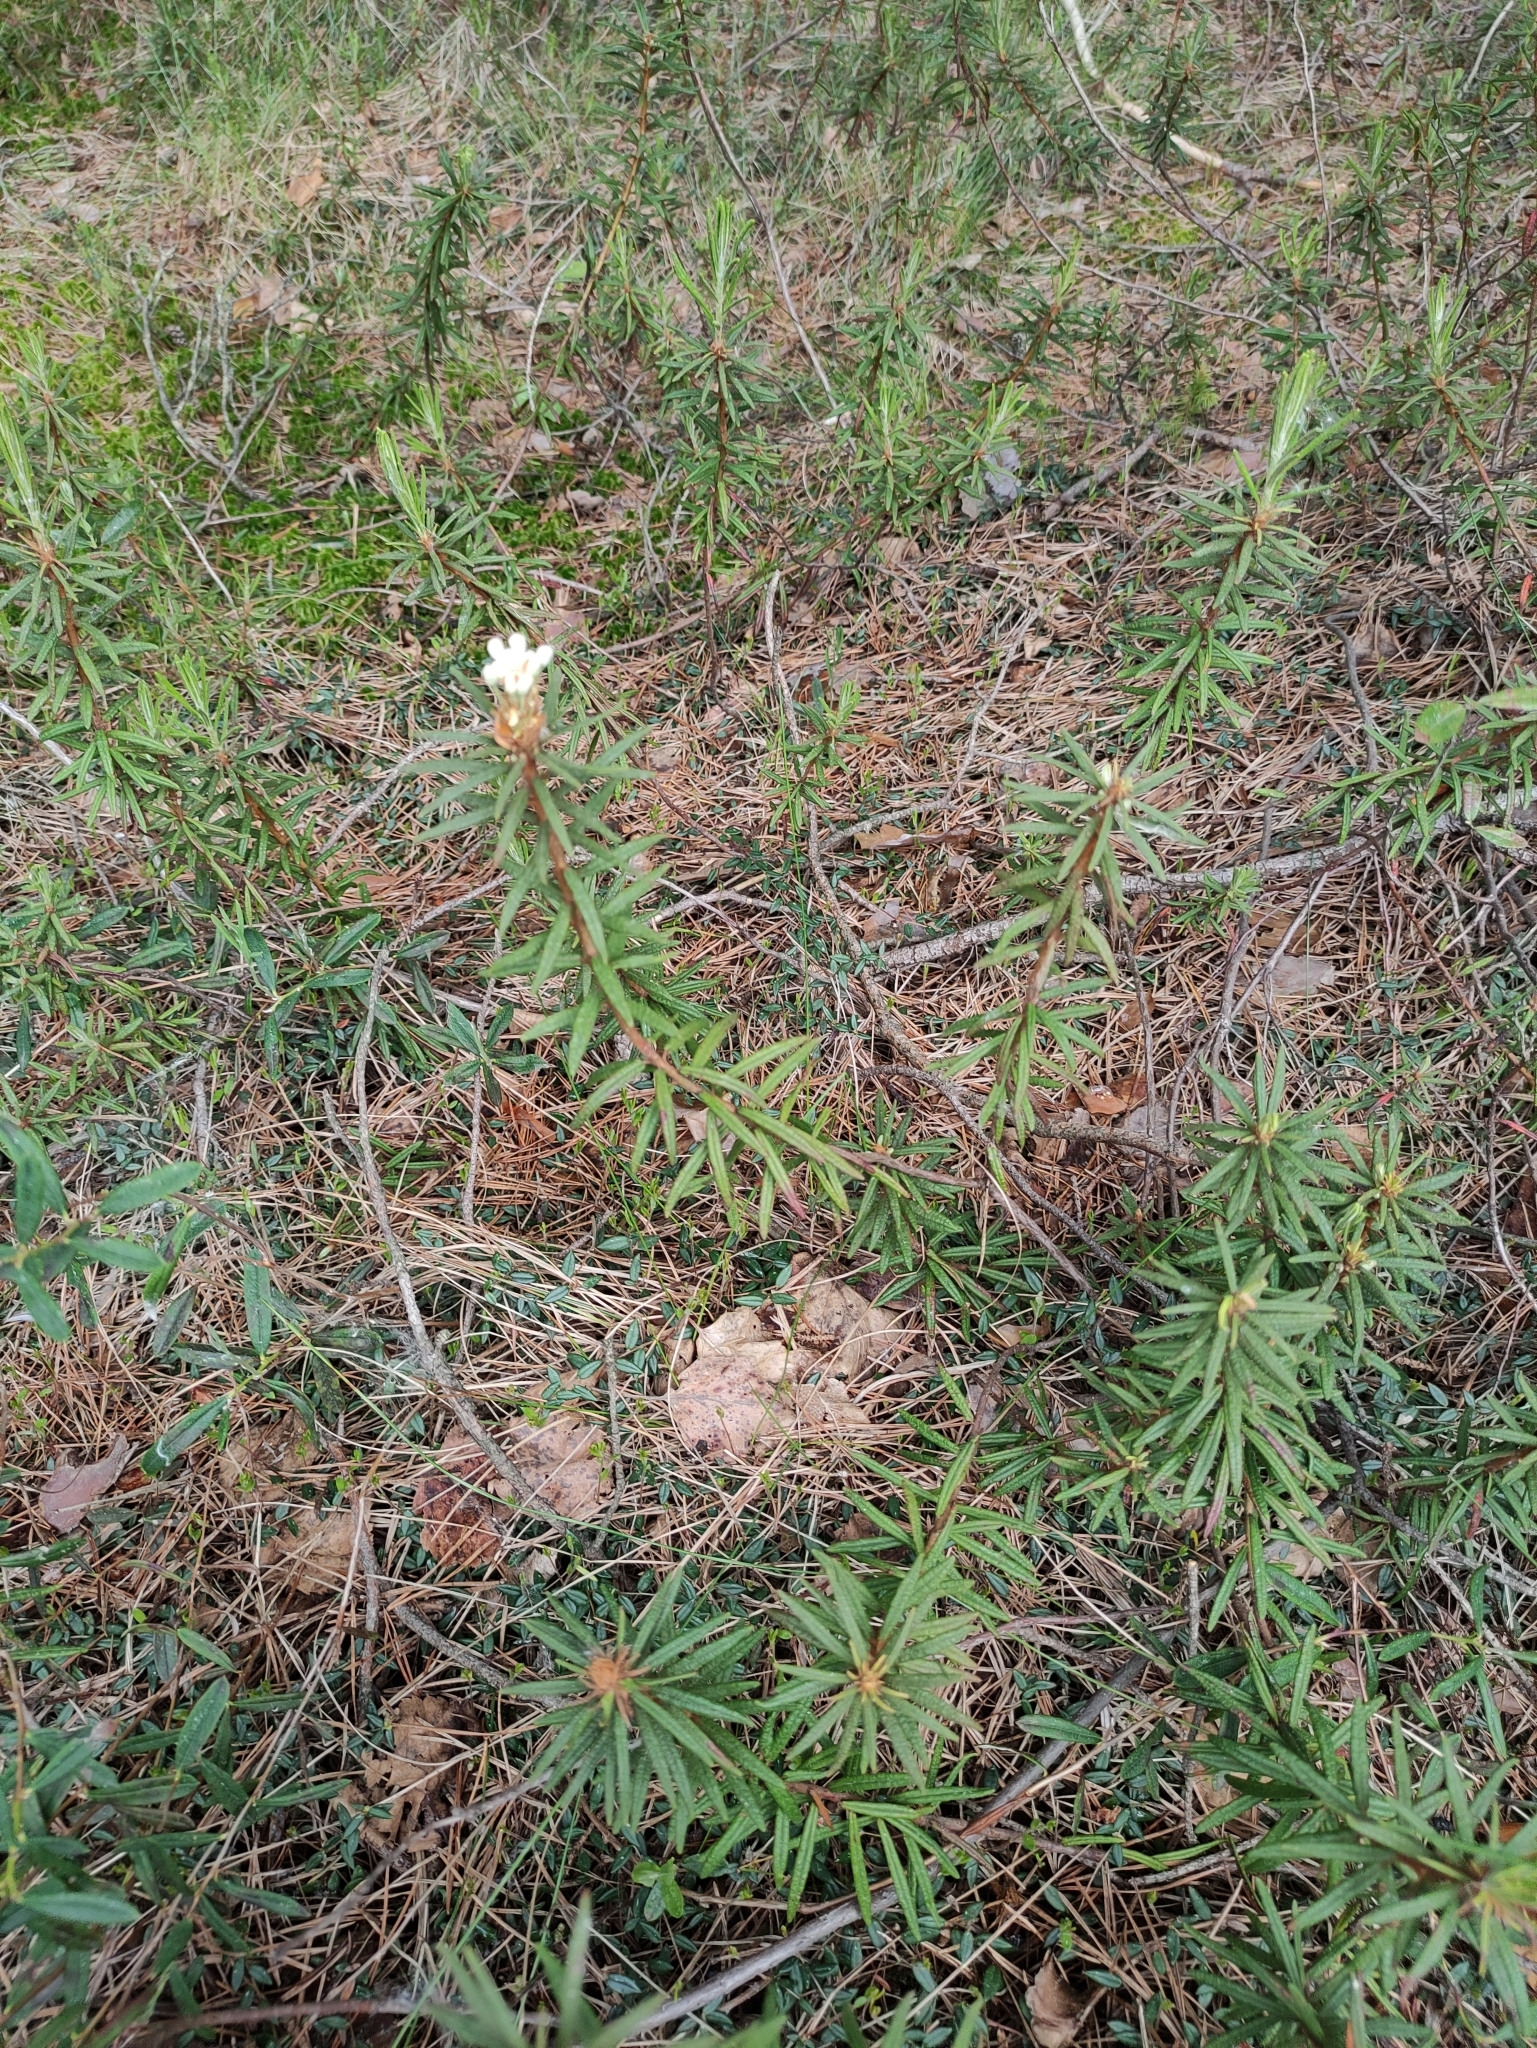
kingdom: Plantae
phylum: Tracheophyta
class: Magnoliopsida
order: Ericales
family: Ericaceae
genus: Rhododendron
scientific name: Rhododendron tomentosum
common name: Marsh labrador tea
